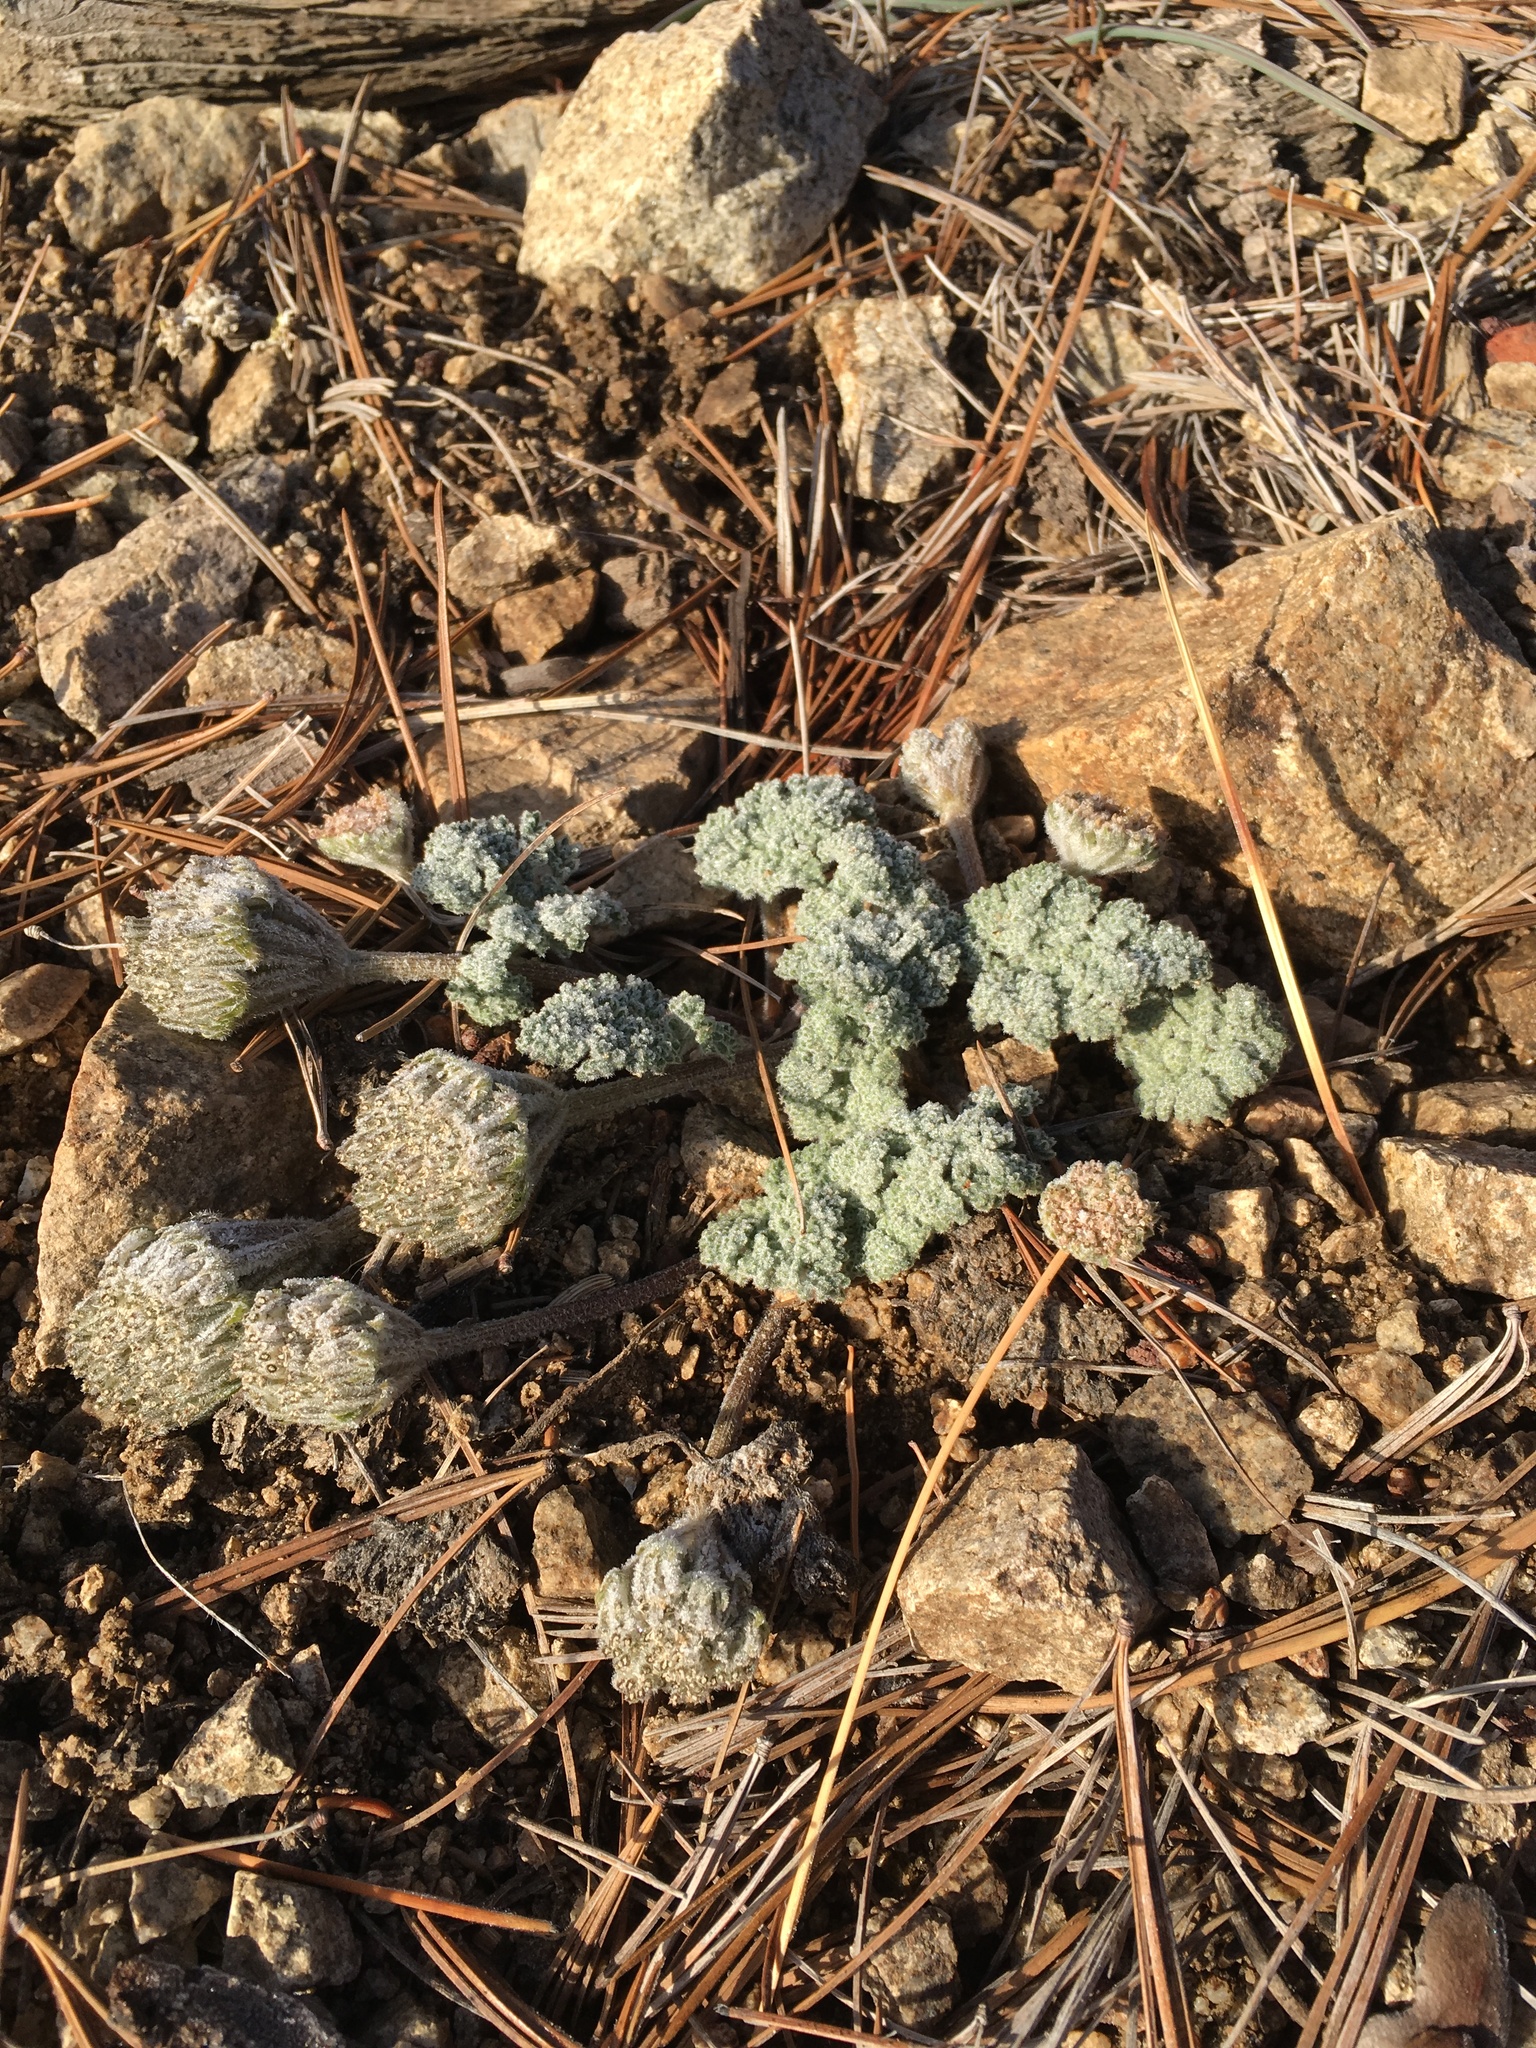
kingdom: Plantae
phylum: Tracheophyta
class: Magnoliopsida
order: Apiales
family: Apiaceae
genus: Oreonana
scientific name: Oreonana vestita
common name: Woolly mountain-parsley
